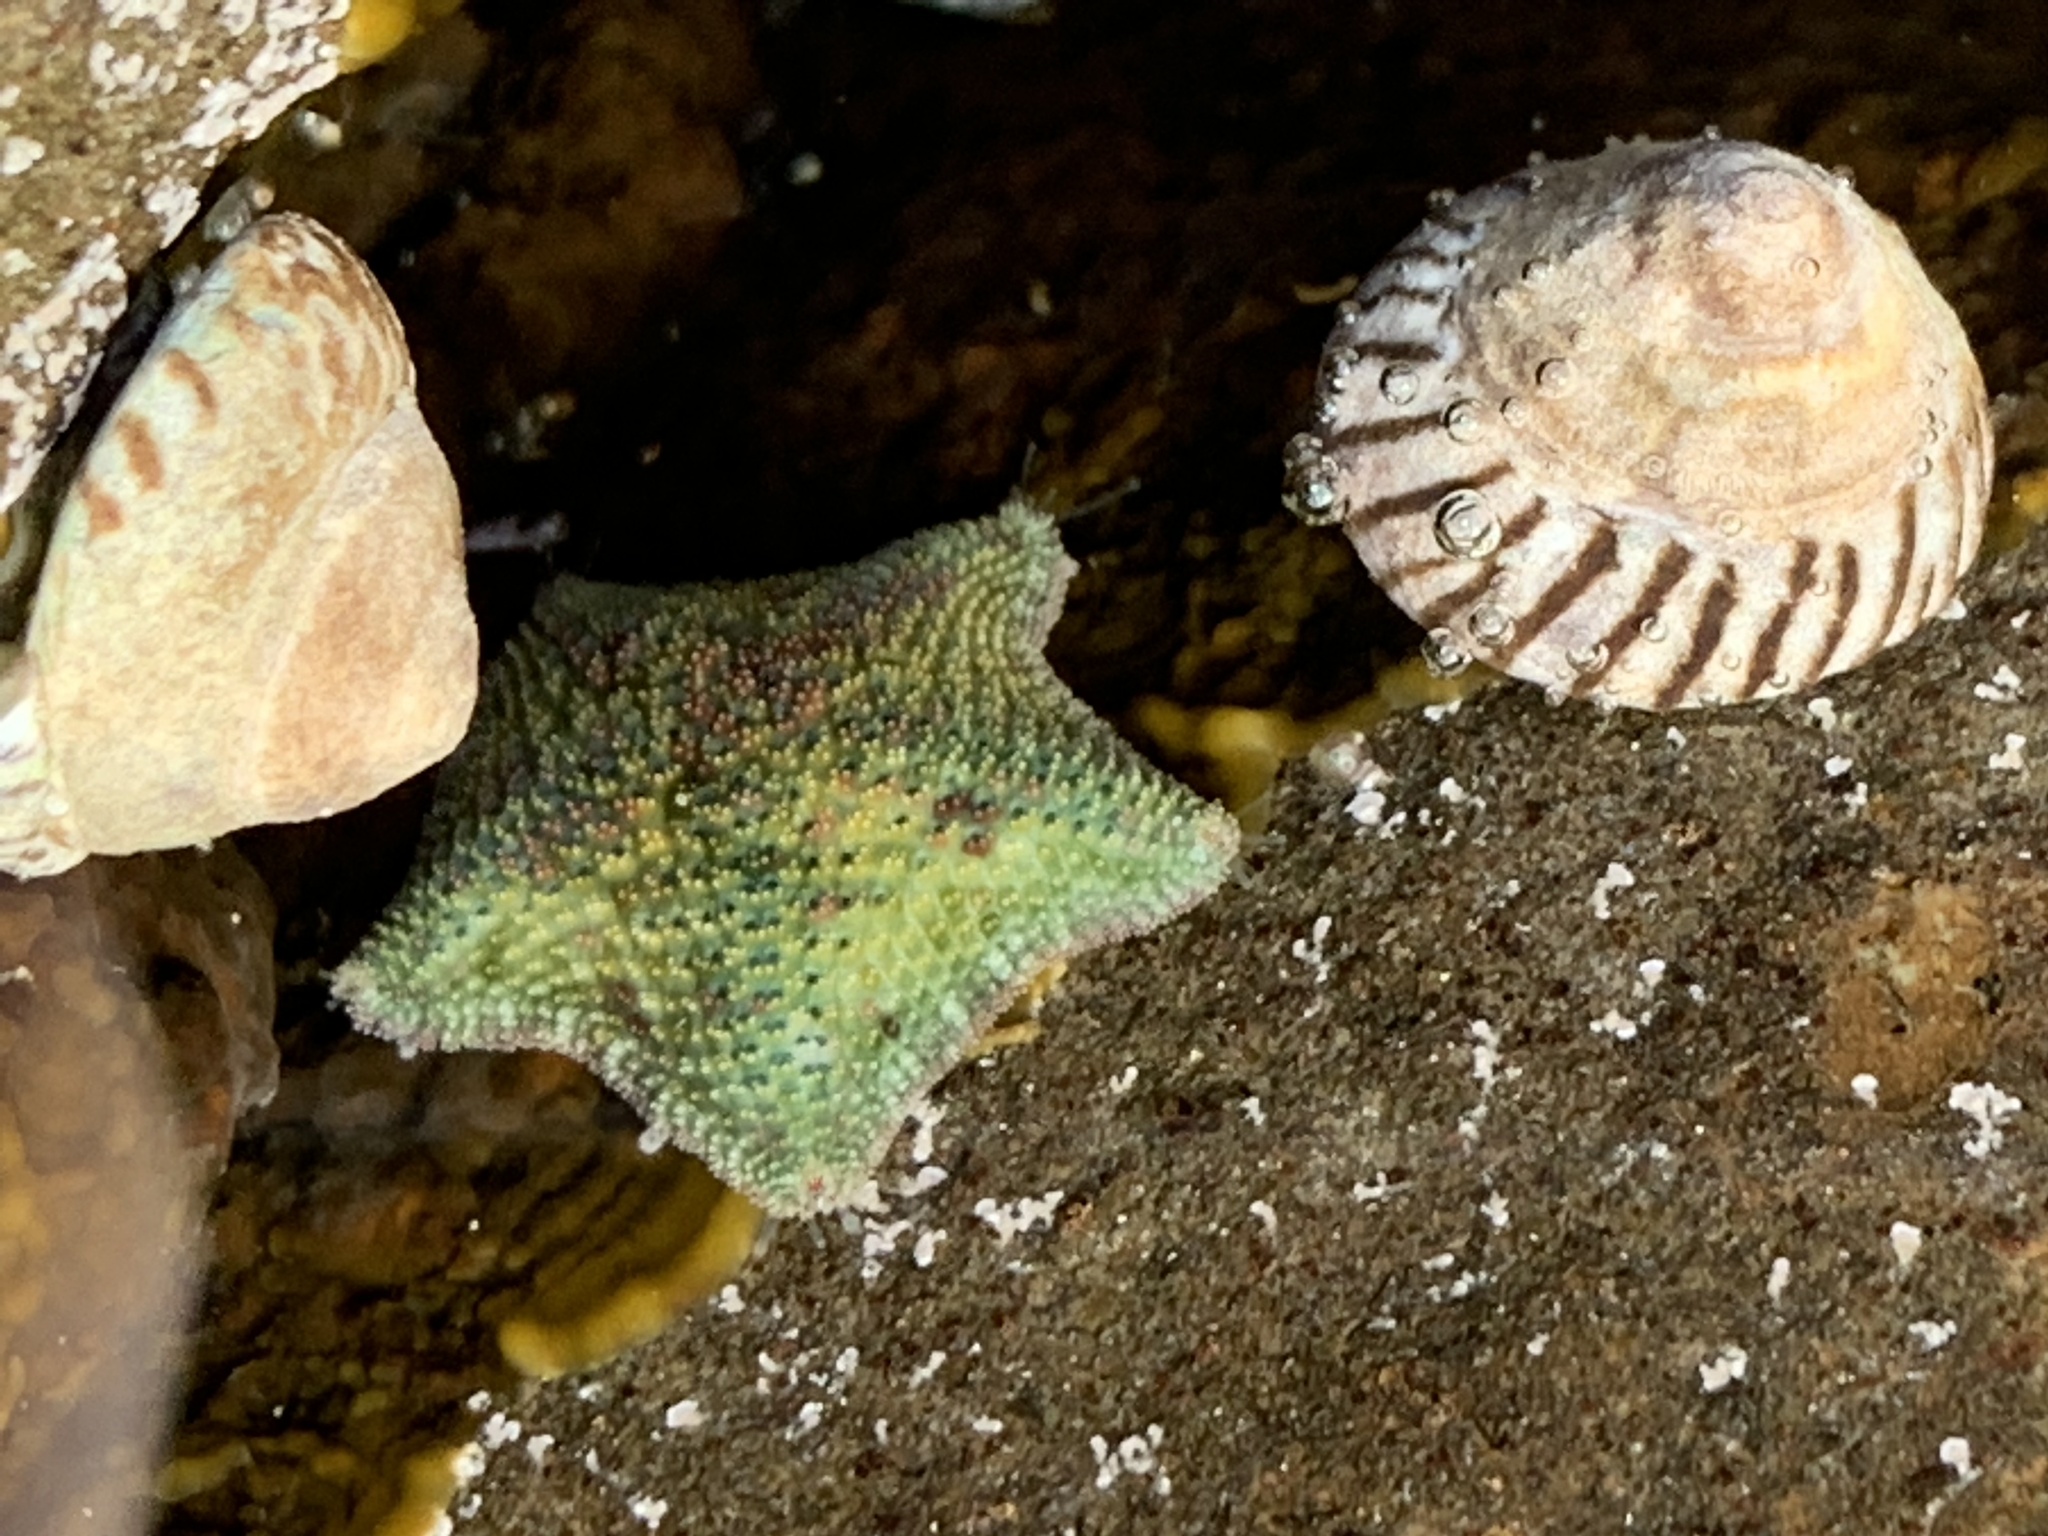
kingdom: Animalia
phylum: Echinodermata
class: Asteroidea
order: Valvatida
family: Asterinidae
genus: Parvulastra
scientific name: Parvulastra exigua
